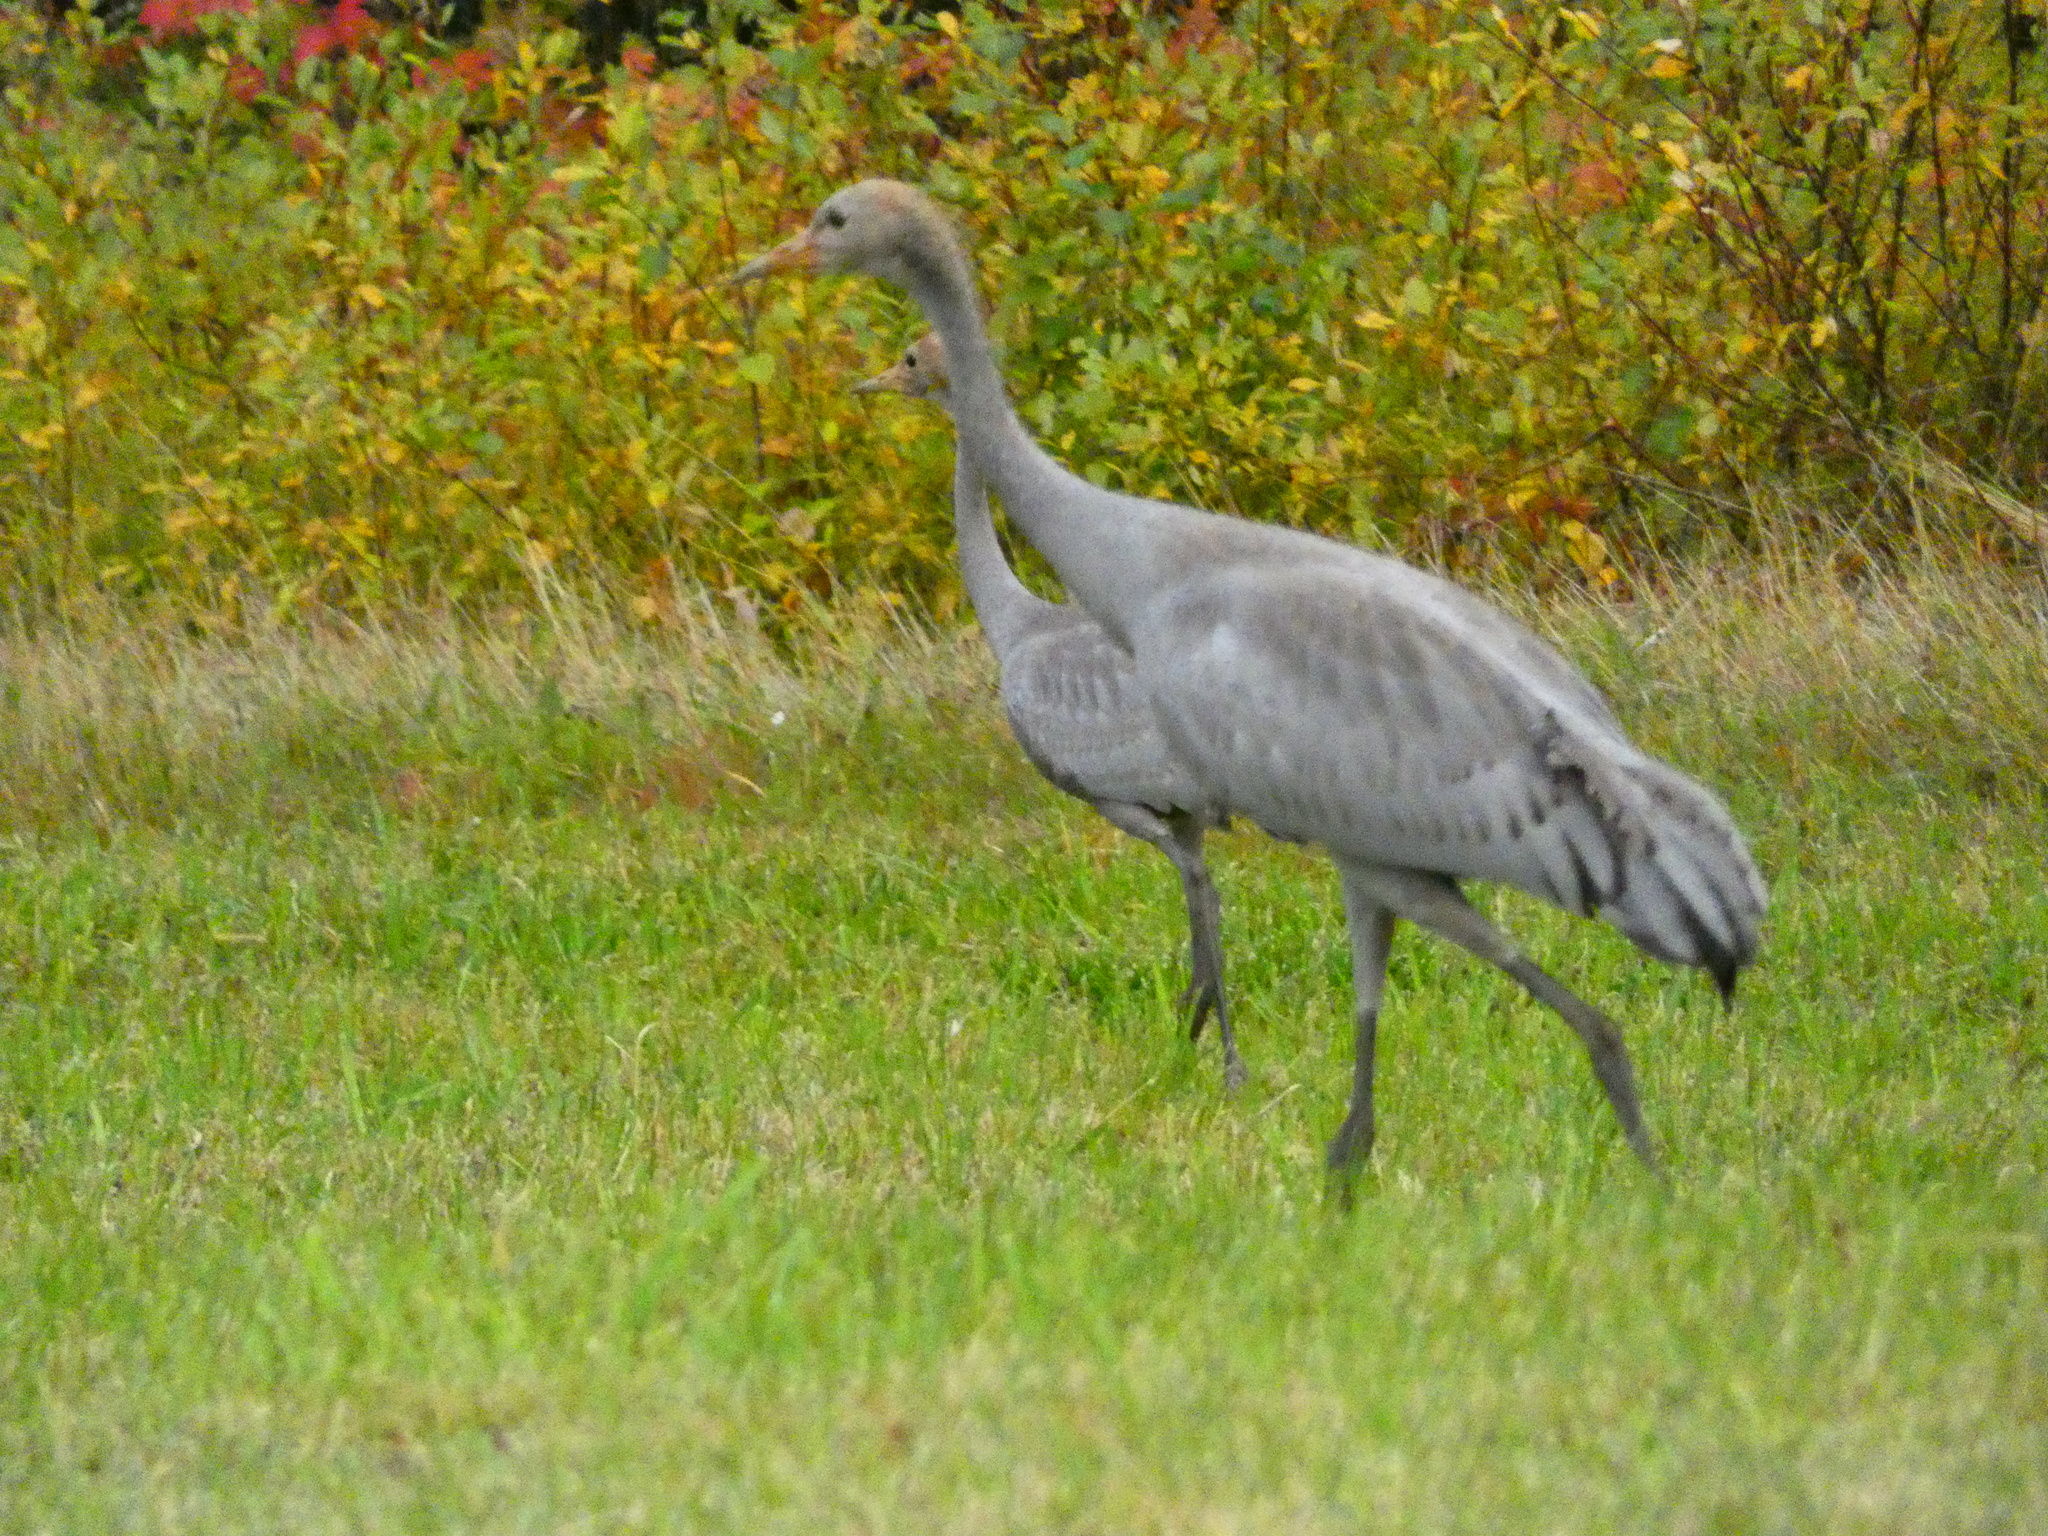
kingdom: Animalia
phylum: Chordata
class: Aves
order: Gruiformes
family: Gruidae
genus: Grus
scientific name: Grus grus
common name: Common crane
